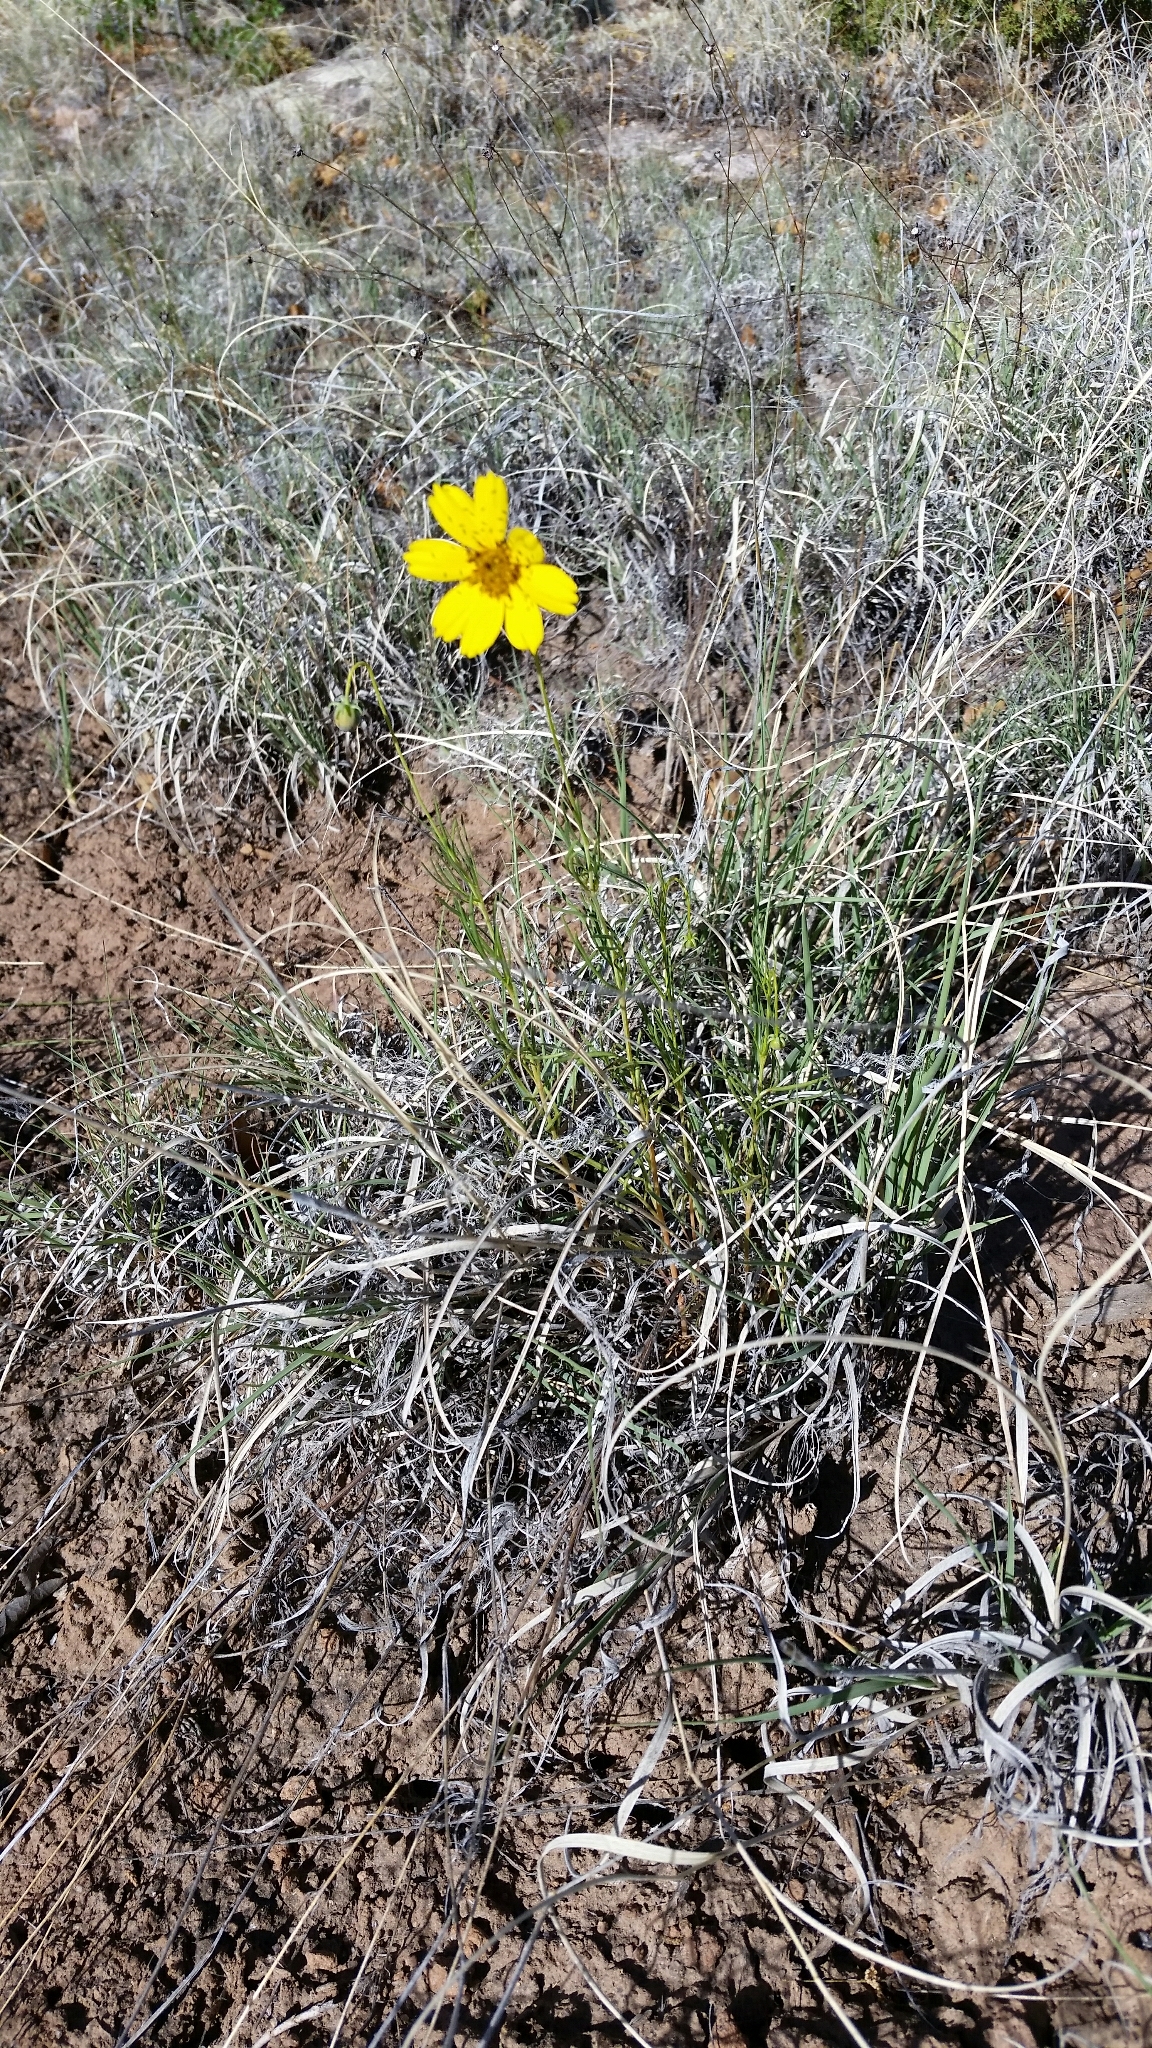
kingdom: Plantae
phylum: Tracheophyta
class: Magnoliopsida
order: Asterales
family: Asteraceae
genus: Thelesperma
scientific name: Thelesperma filifolium
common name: Stiff greenthread
